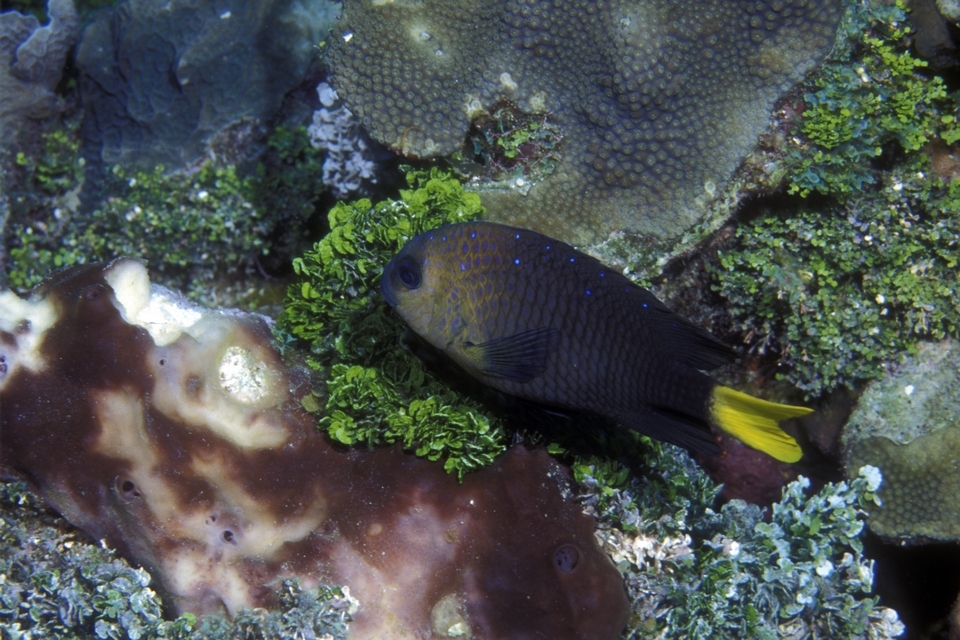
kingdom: Animalia
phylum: Chordata
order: Perciformes
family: Pomacentridae
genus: Microspathodon
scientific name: Microspathodon chrysurus
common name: Yellowtail damselfish
